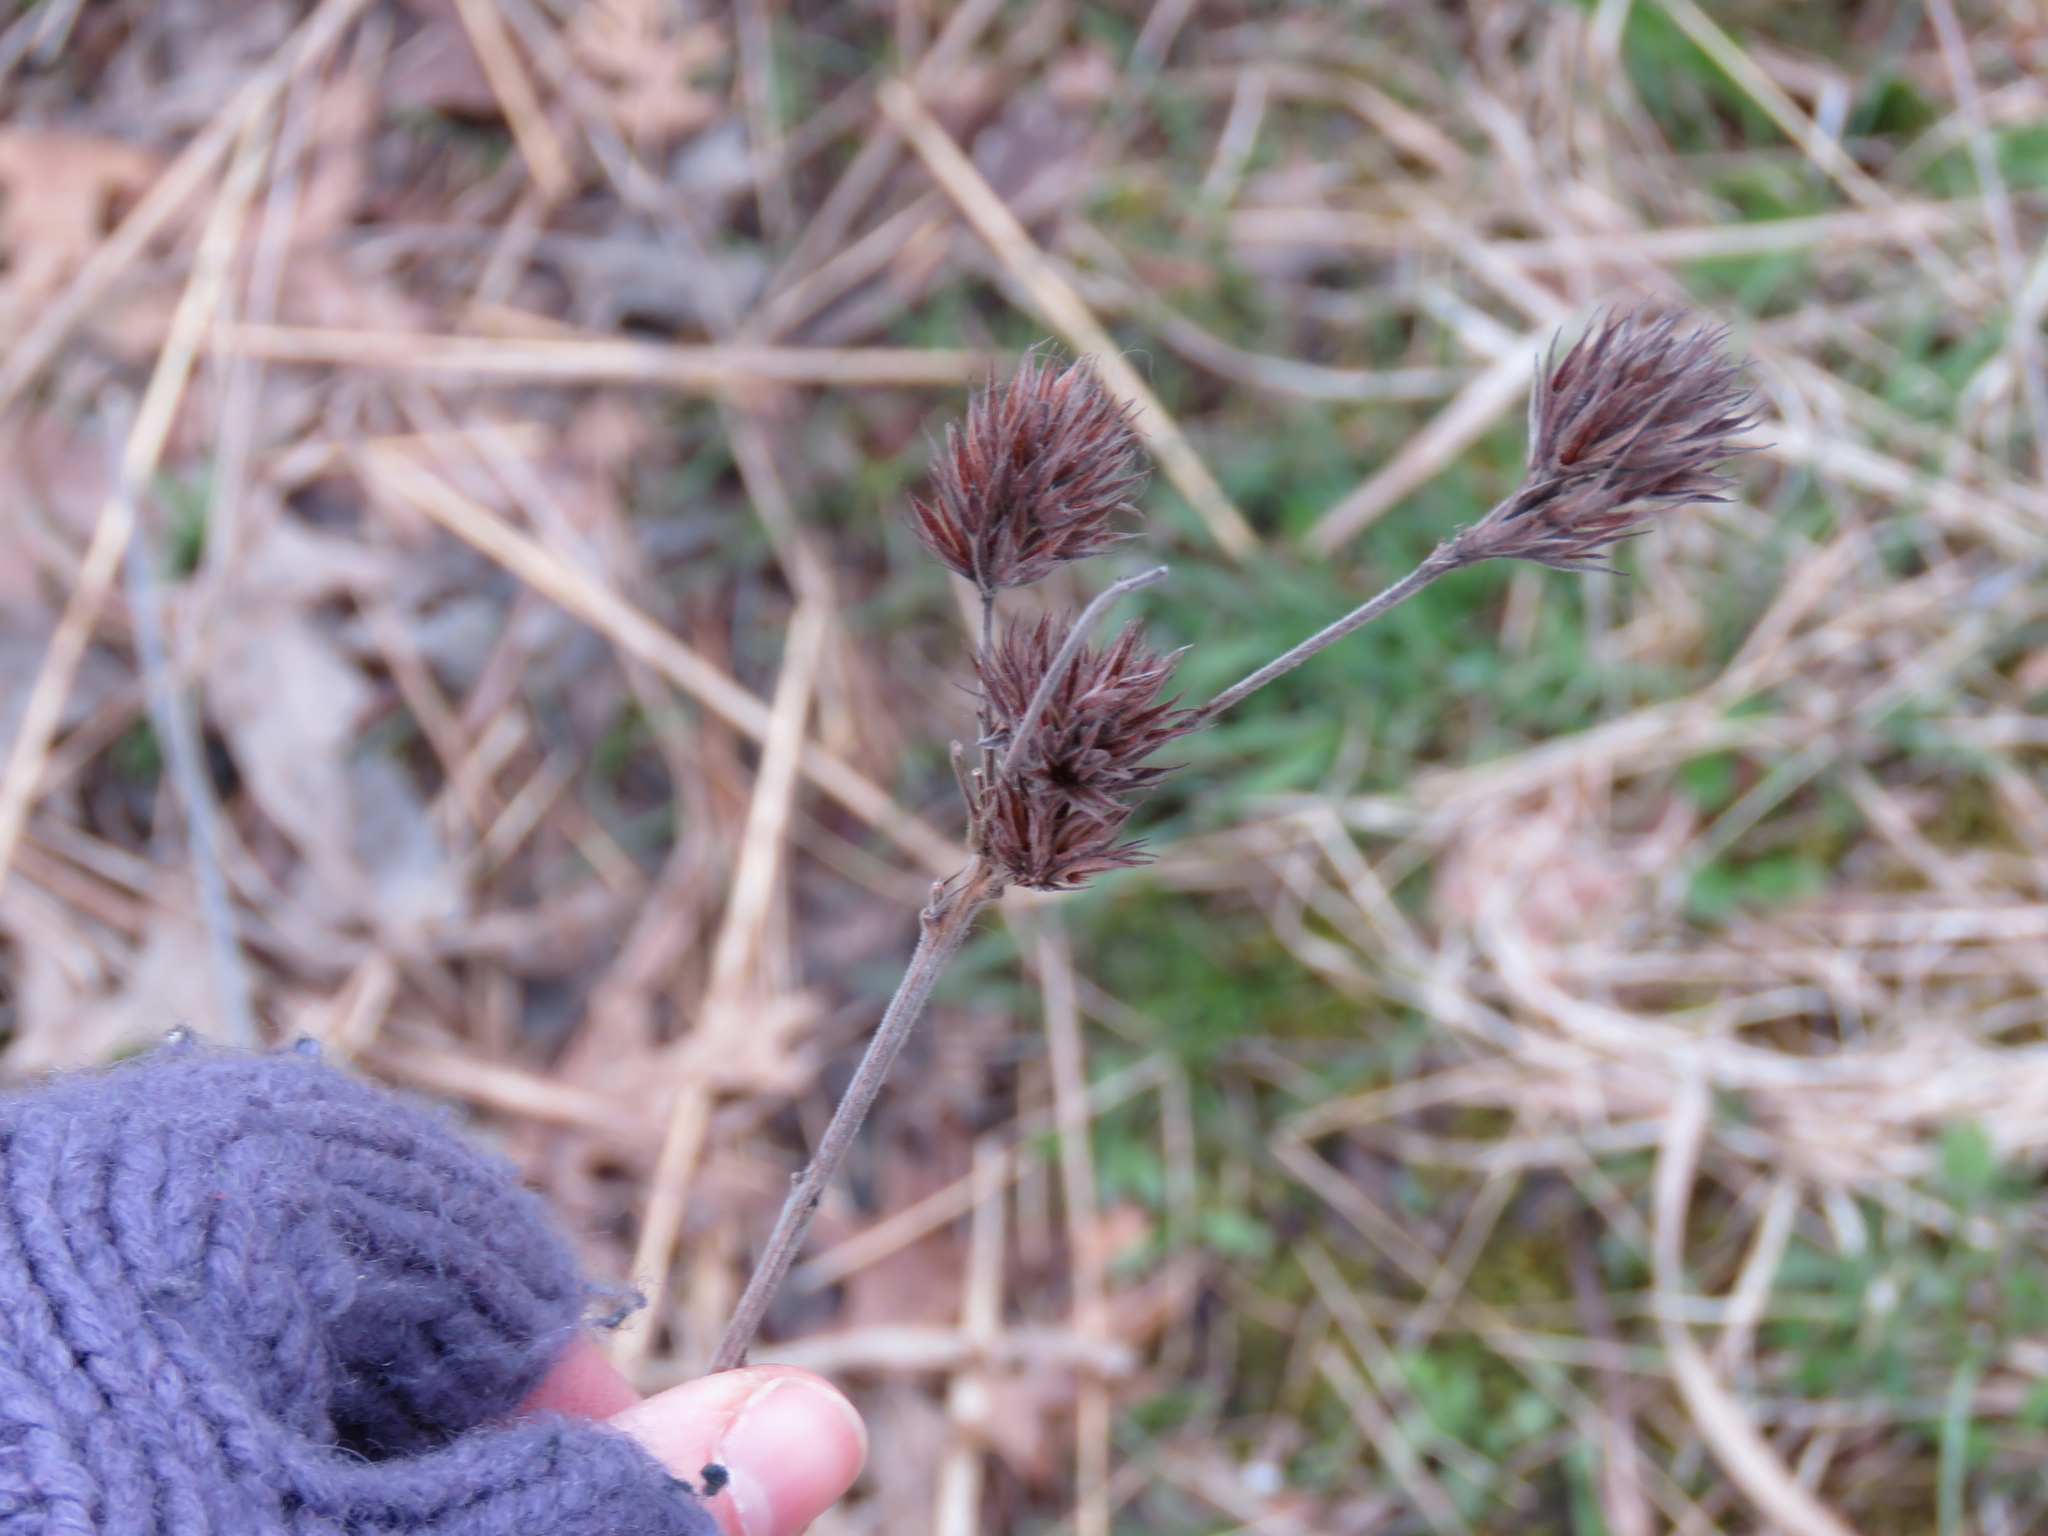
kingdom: Plantae
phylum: Tracheophyta
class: Magnoliopsida
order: Fabales
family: Fabaceae
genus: Lespedeza
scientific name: Lespedeza capitata
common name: Dusty clover
